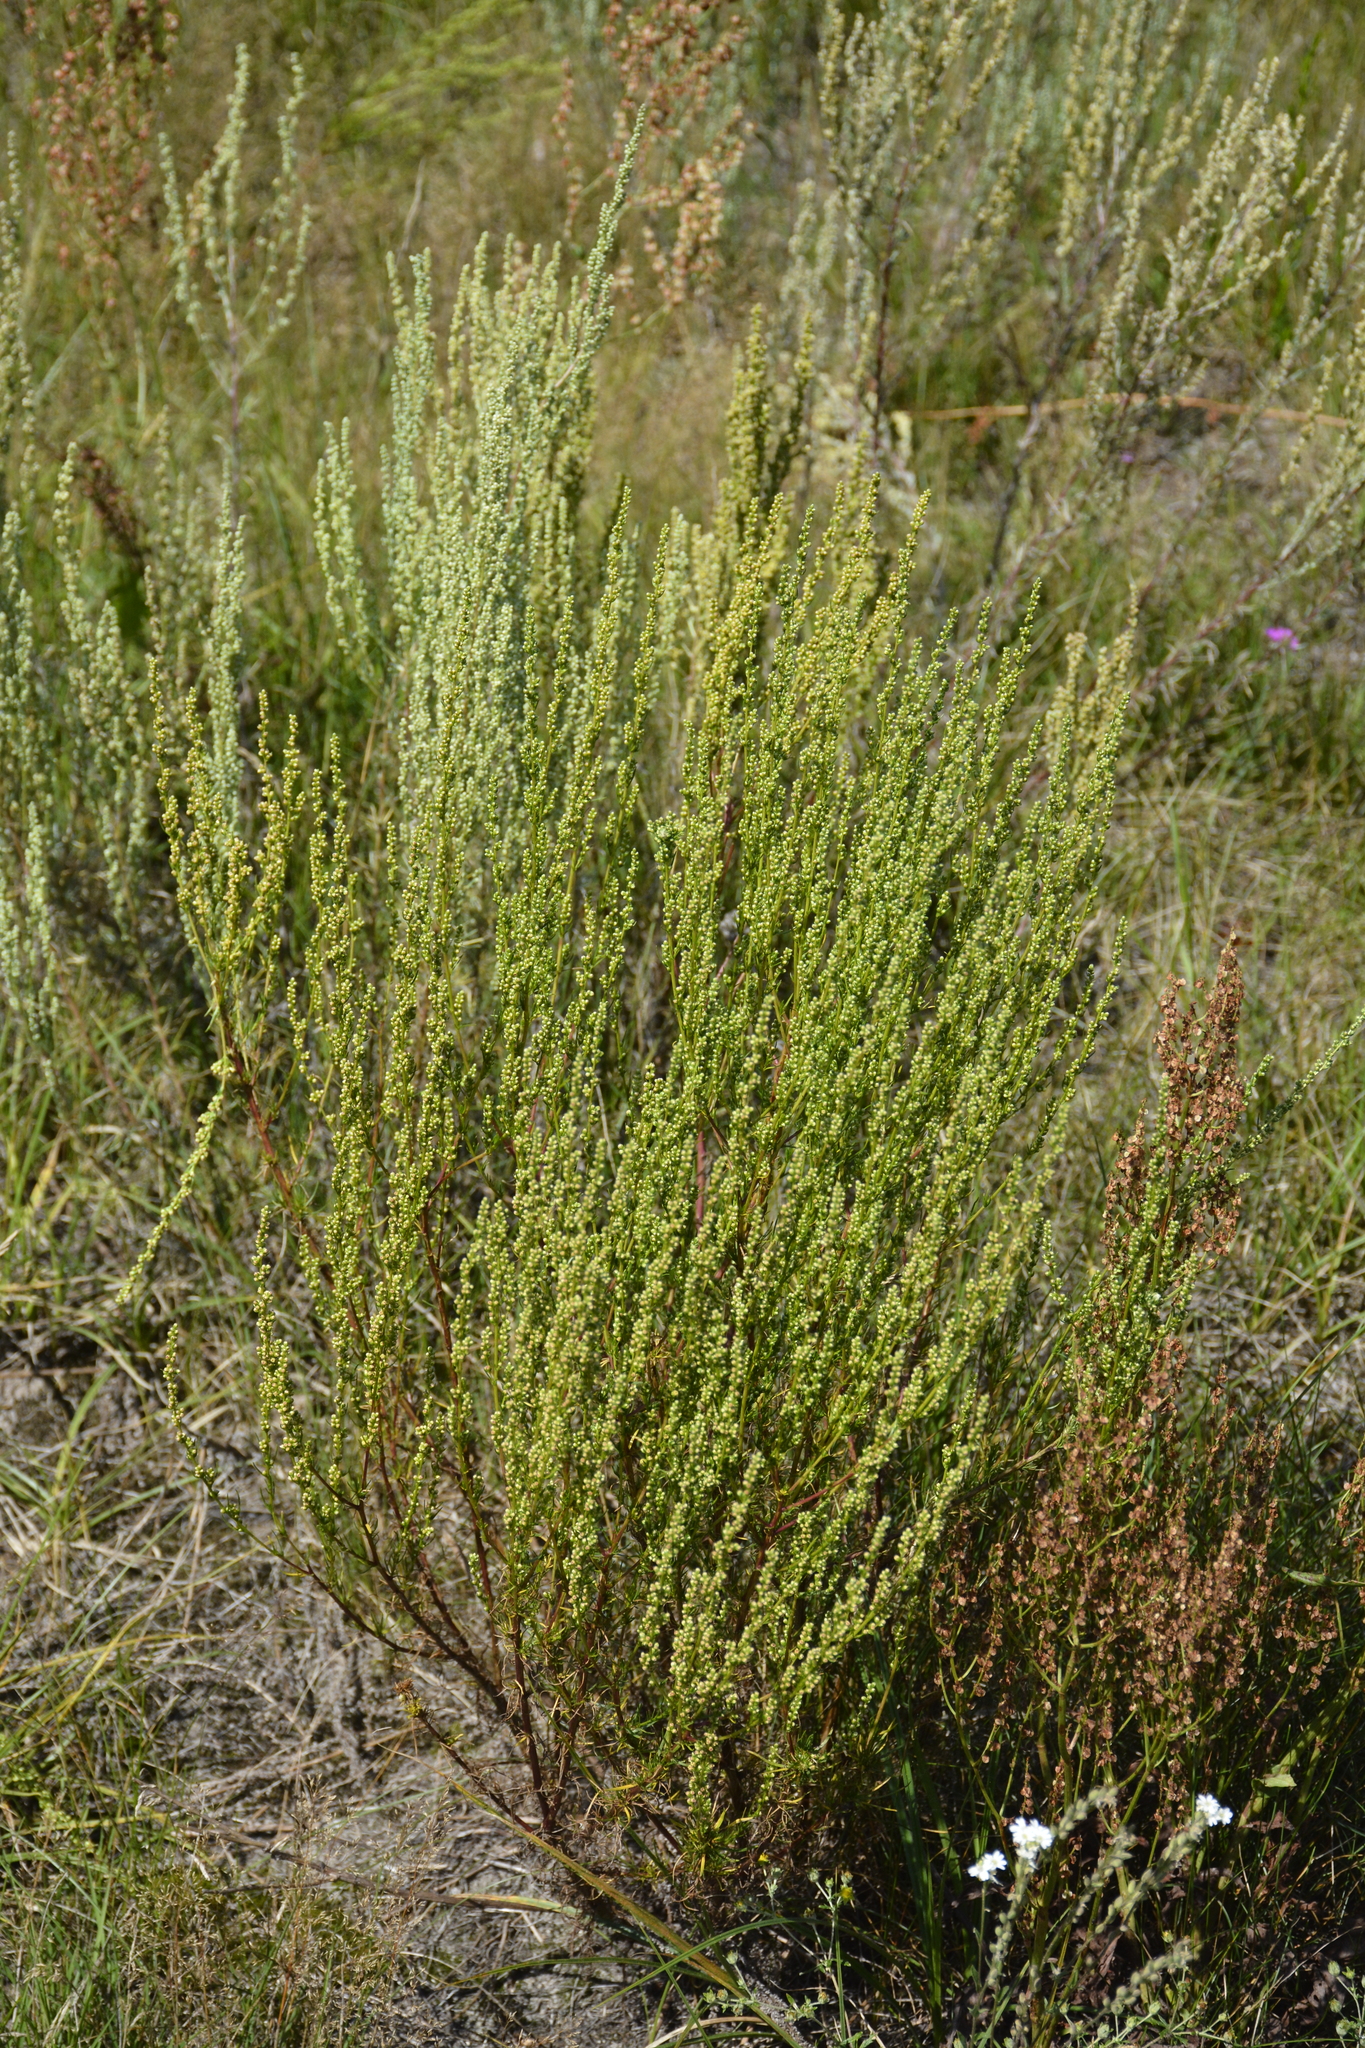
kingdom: Plantae
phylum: Tracheophyta
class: Magnoliopsida
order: Asterales
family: Asteraceae
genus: Artemisia
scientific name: Artemisia campestris
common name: Field wormwood
